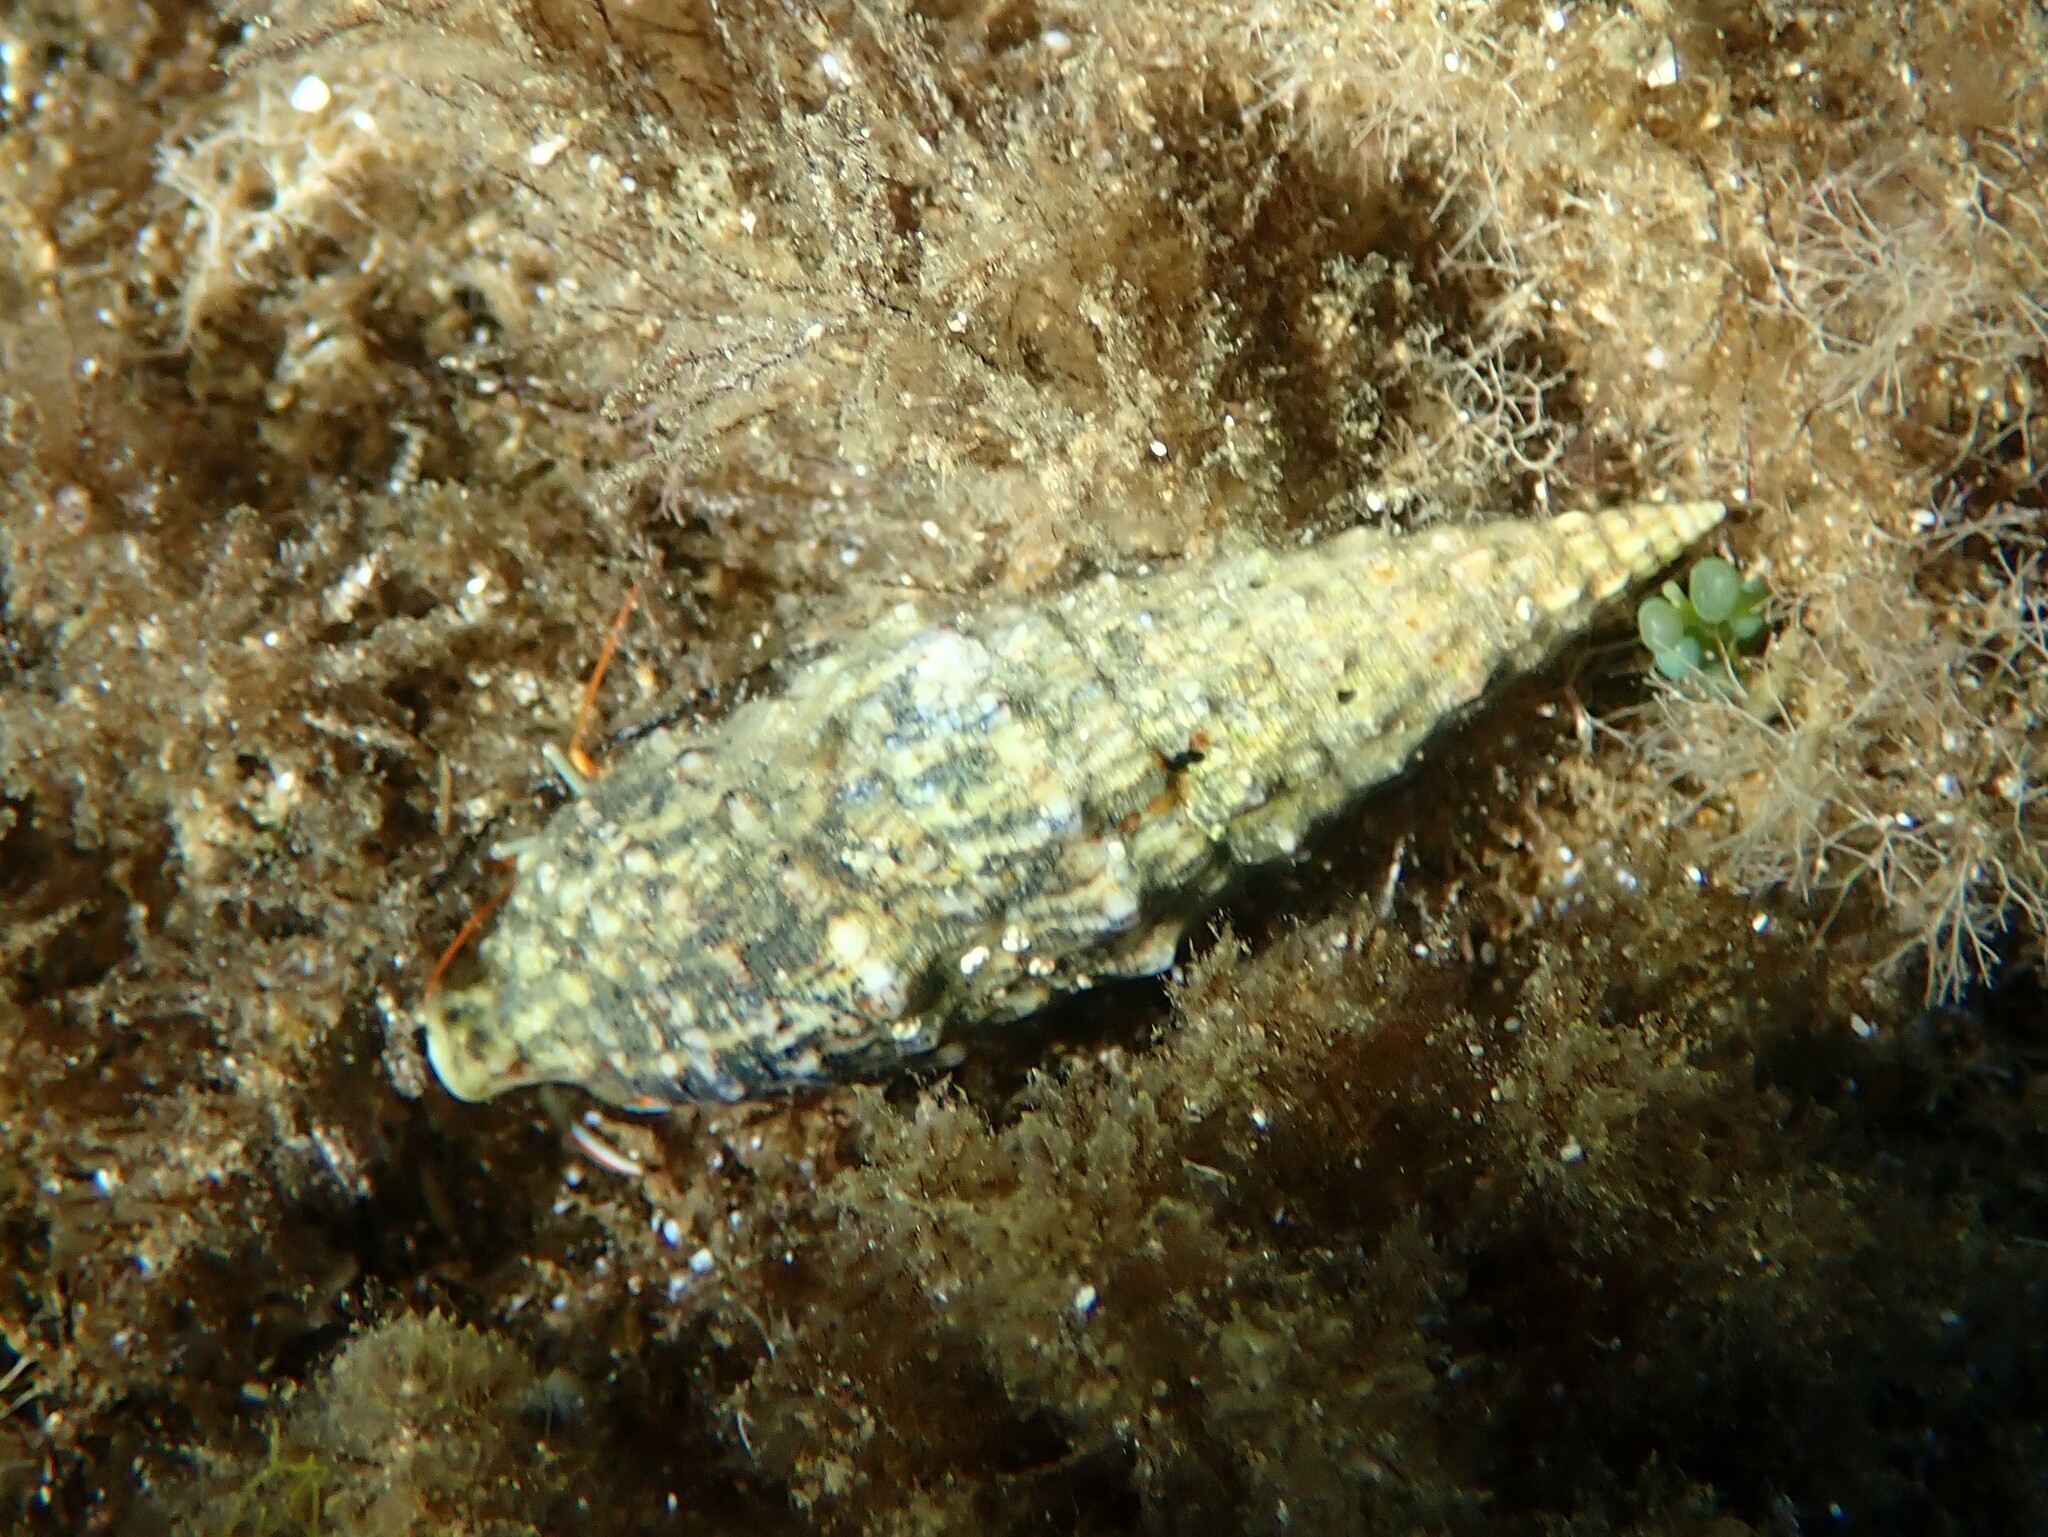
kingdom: Animalia
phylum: Mollusca
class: Gastropoda
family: Cerithiidae
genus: Cerithium
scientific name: Cerithium vulgatum
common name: European cerith
